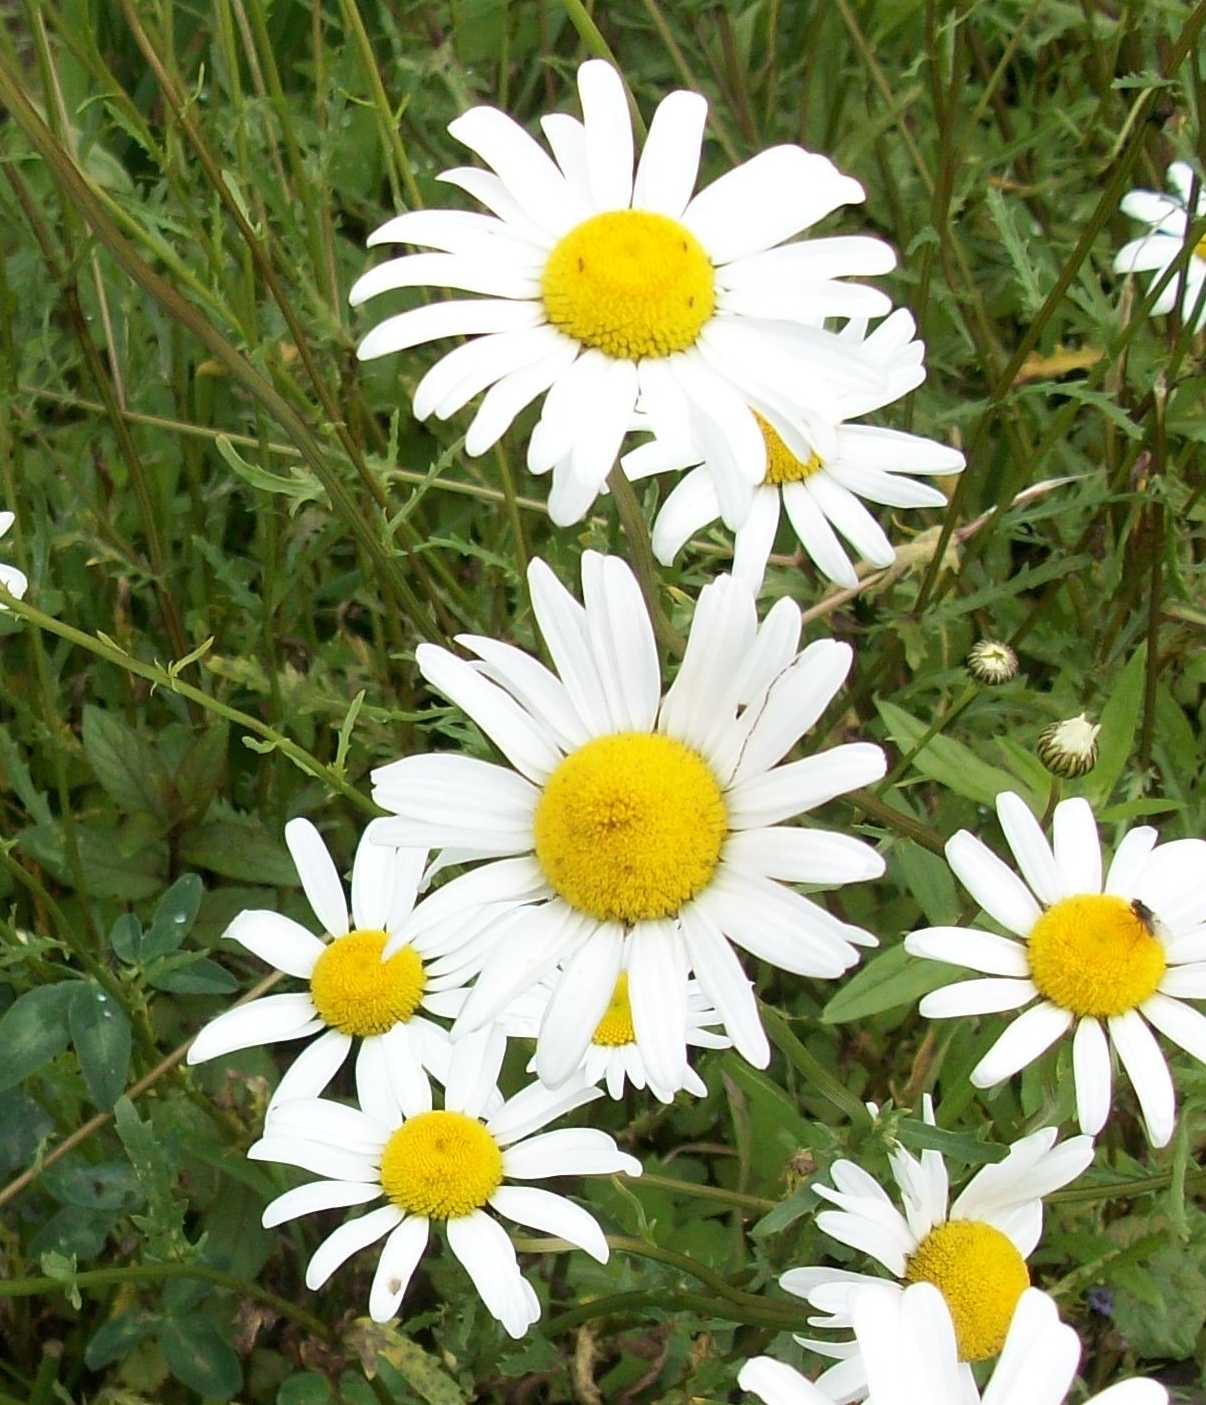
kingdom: Plantae
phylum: Tracheophyta
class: Magnoliopsida
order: Asterales
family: Asteraceae
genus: Leucanthemum
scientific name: Leucanthemum vulgare
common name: Oxeye daisy
